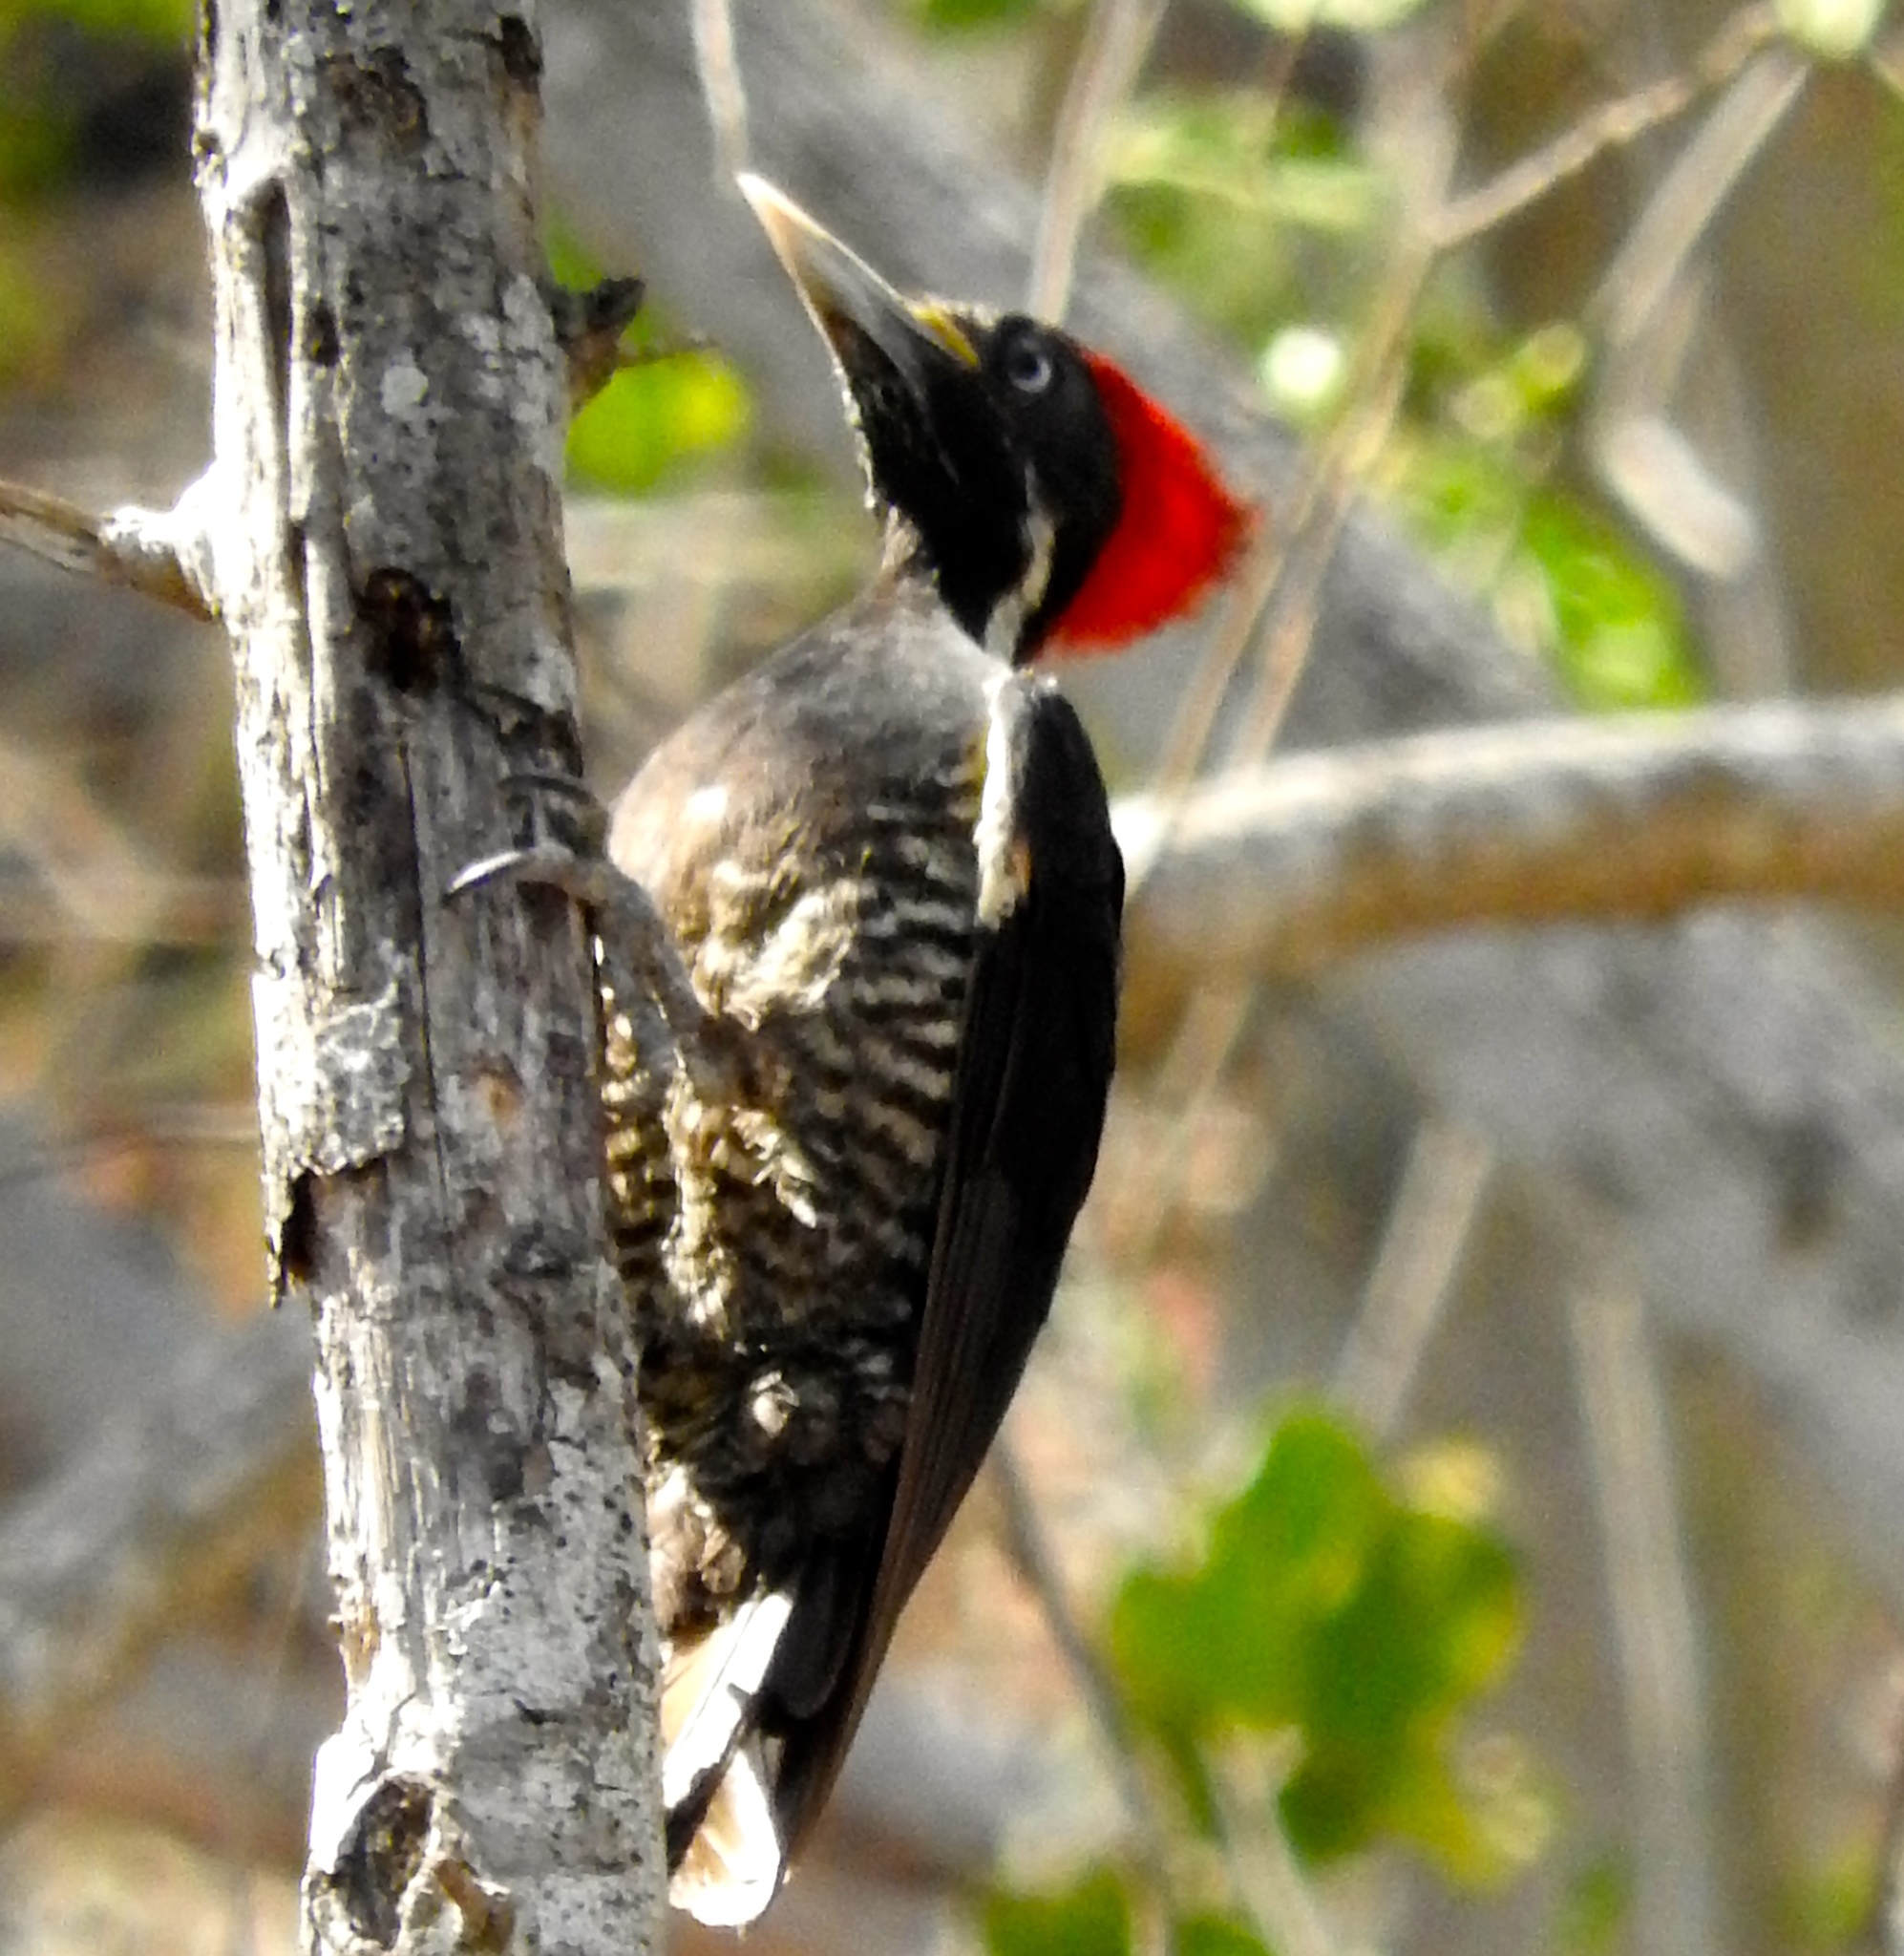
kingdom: Animalia
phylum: Chordata
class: Aves
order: Piciformes
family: Picidae
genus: Dryocopus
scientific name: Dryocopus lineatus
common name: Lineated woodpecker
